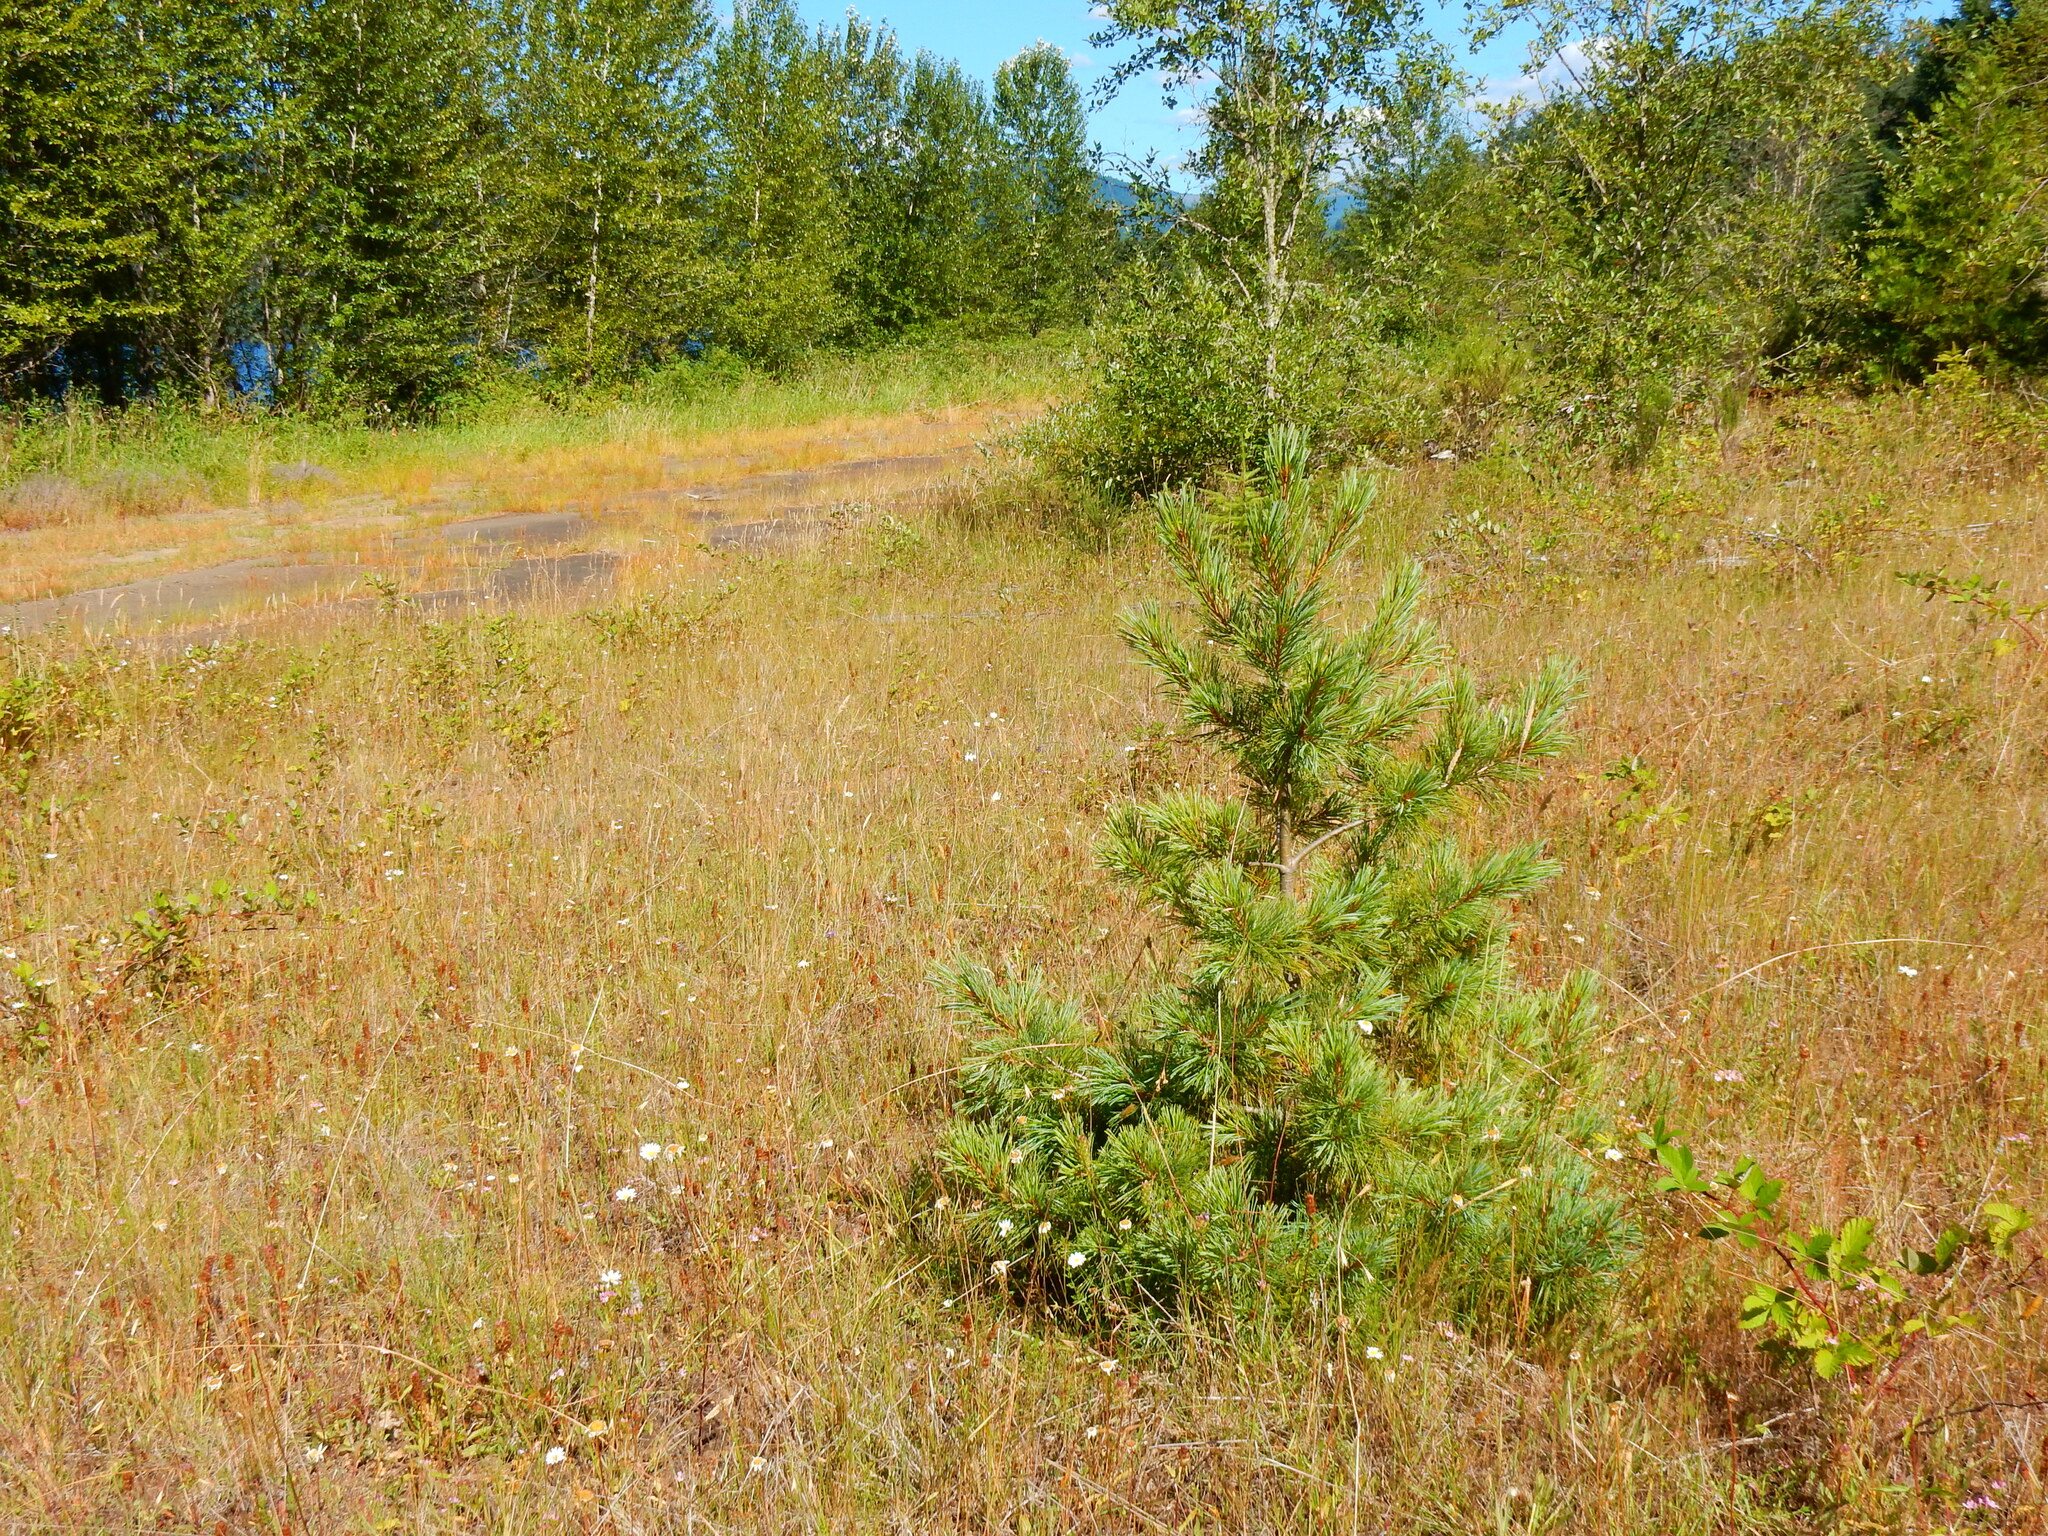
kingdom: Plantae
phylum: Tracheophyta
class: Pinopsida
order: Pinales
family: Pinaceae
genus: Pinus
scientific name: Pinus lambertiana
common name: Sugar pine
